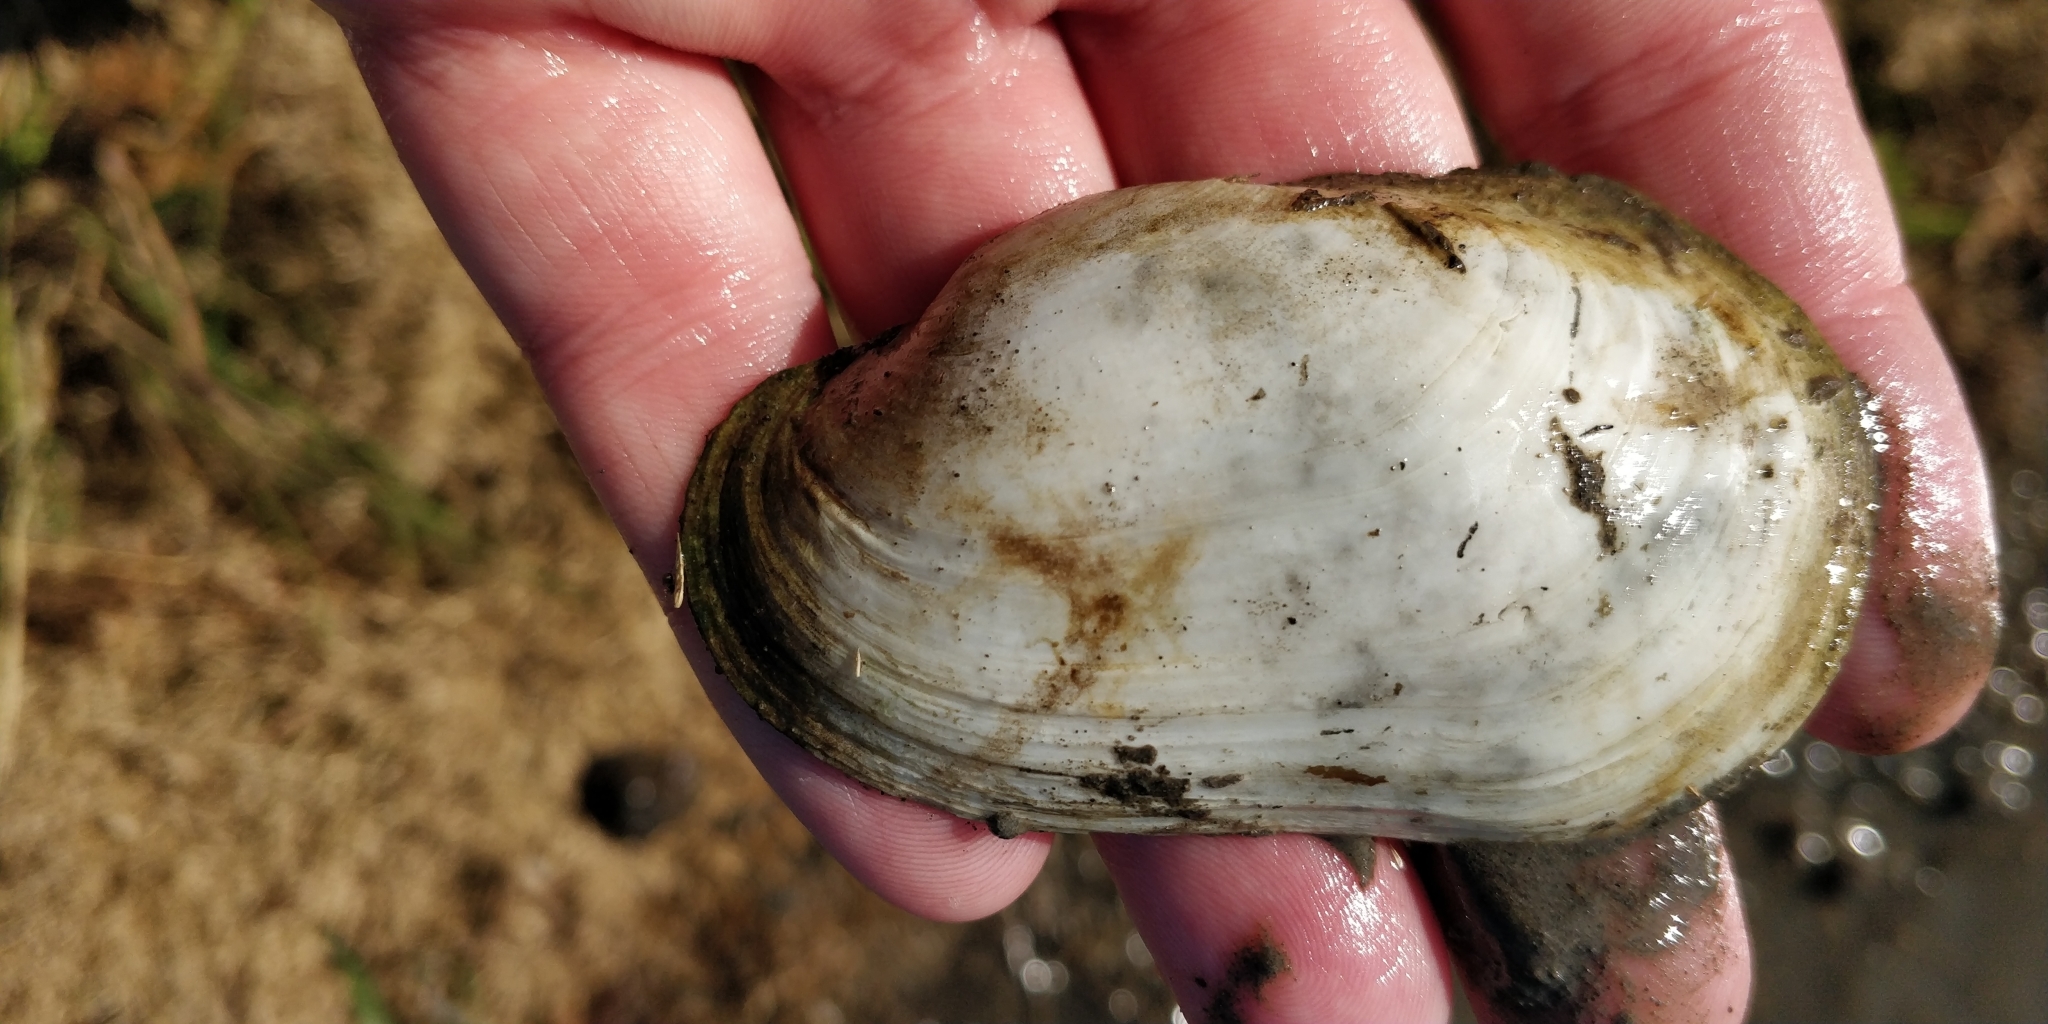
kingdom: Animalia
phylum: Mollusca
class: Bivalvia
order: Unionida
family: Unionidae
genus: Lampsilis
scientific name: Lampsilis siliquoidea
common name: Fatmucket
